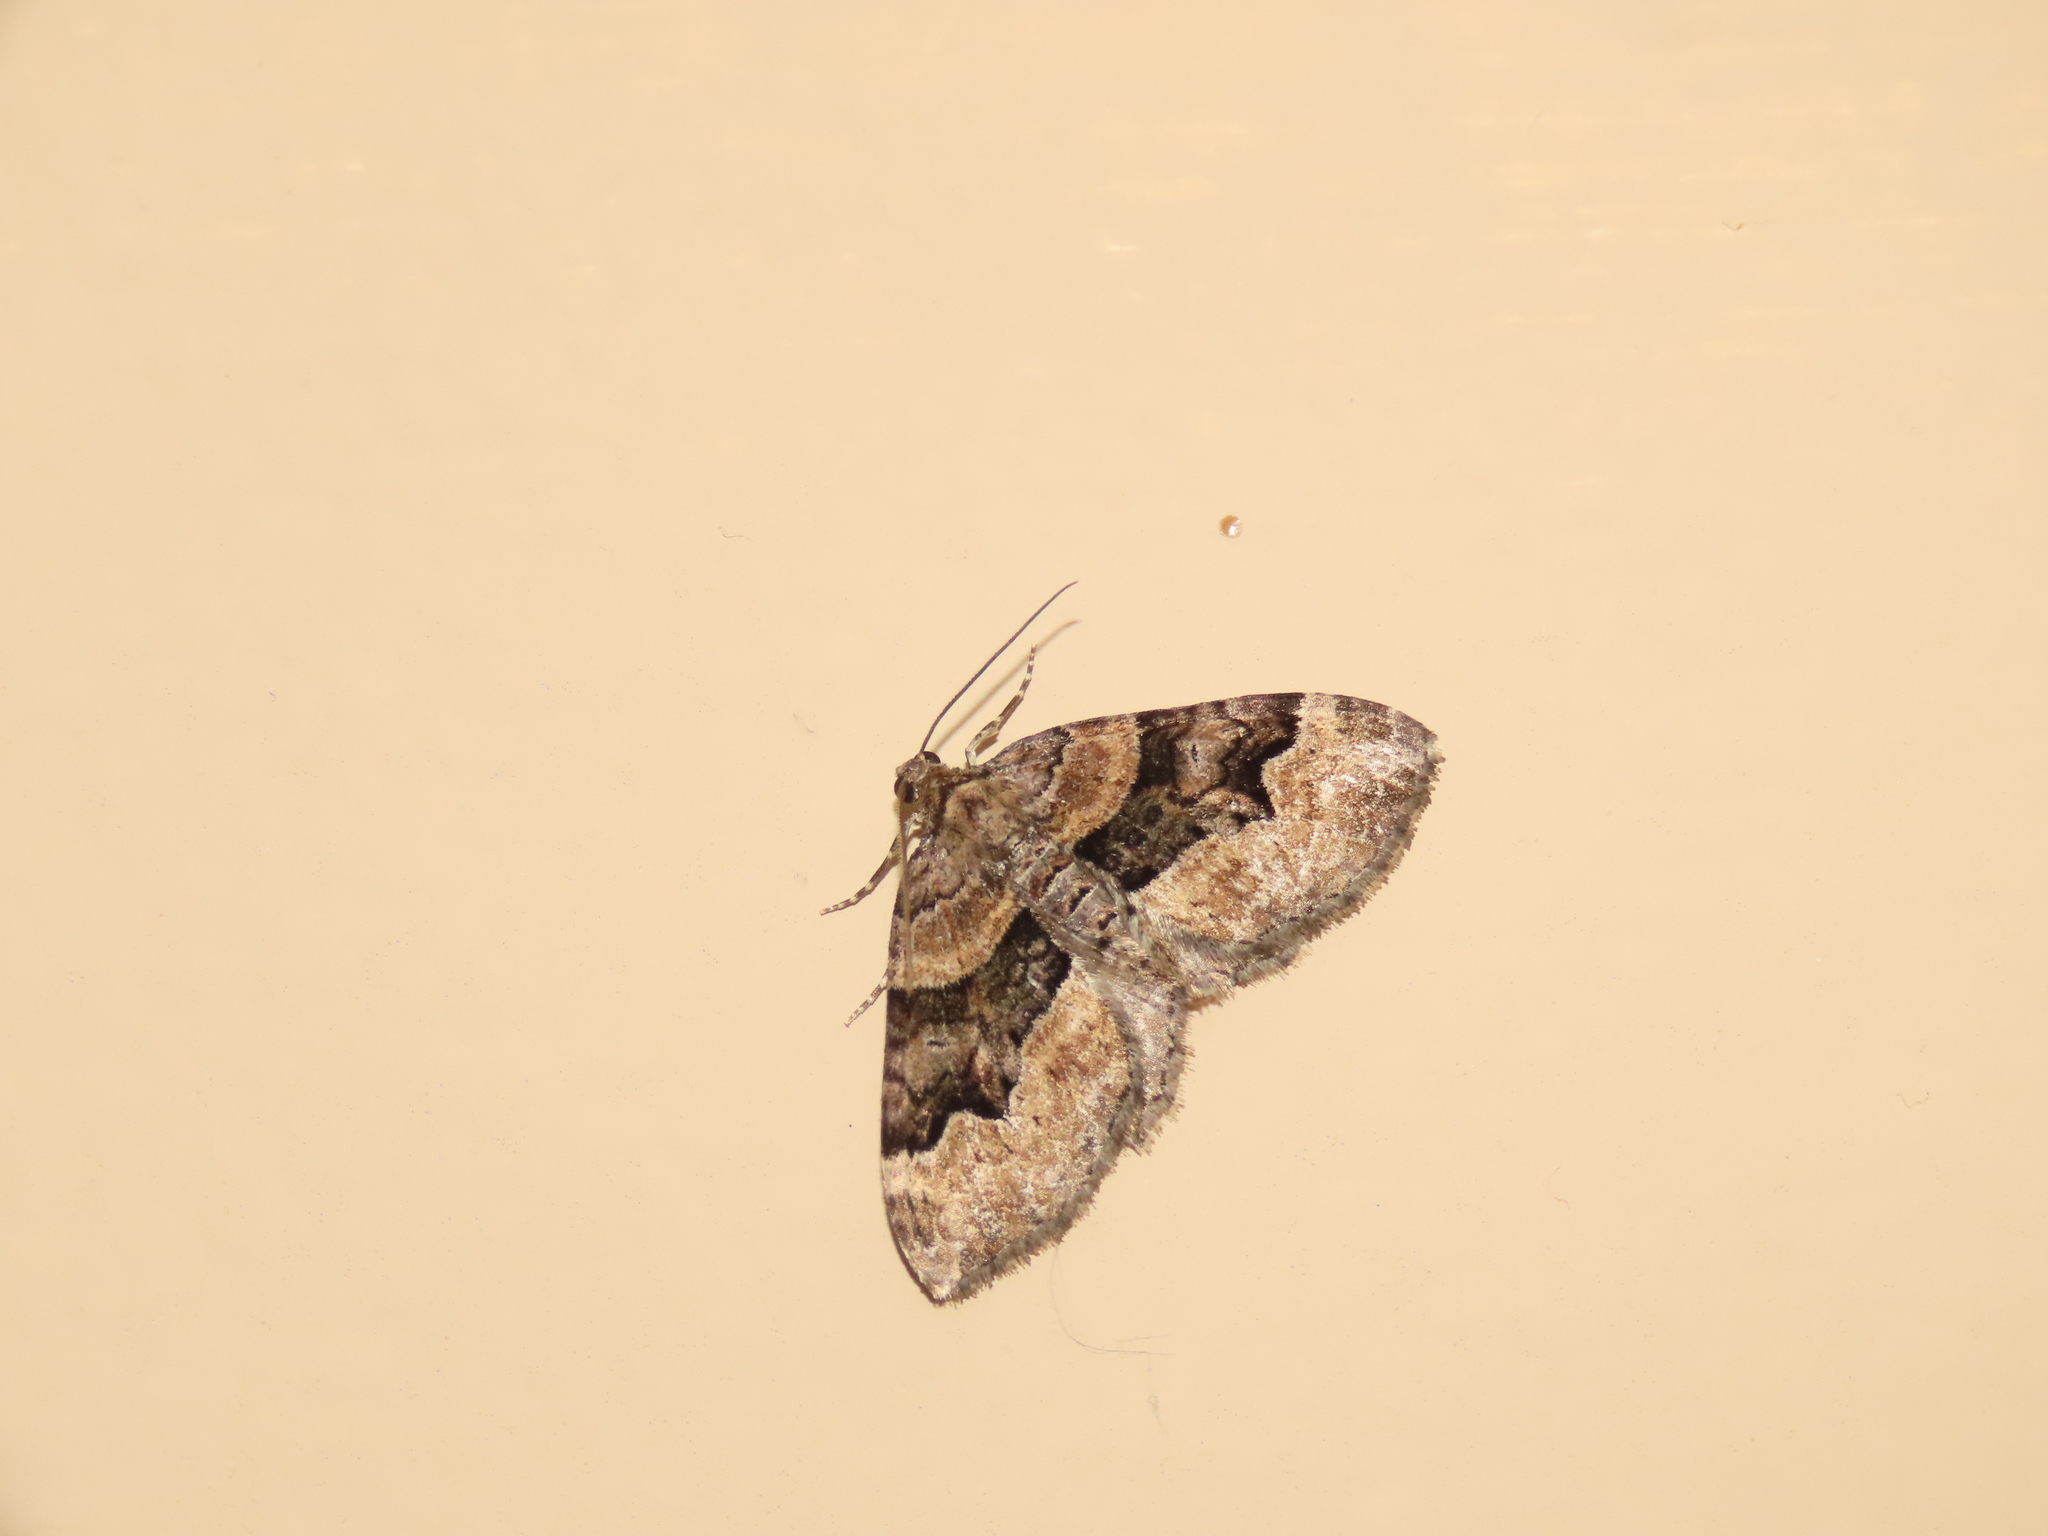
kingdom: Animalia
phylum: Arthropoda
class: Insecta
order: Lepidoptera
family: Geometridae
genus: Xanthorhoe
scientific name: Xanthorhoe lacustrata
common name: Toothed brown carpet
